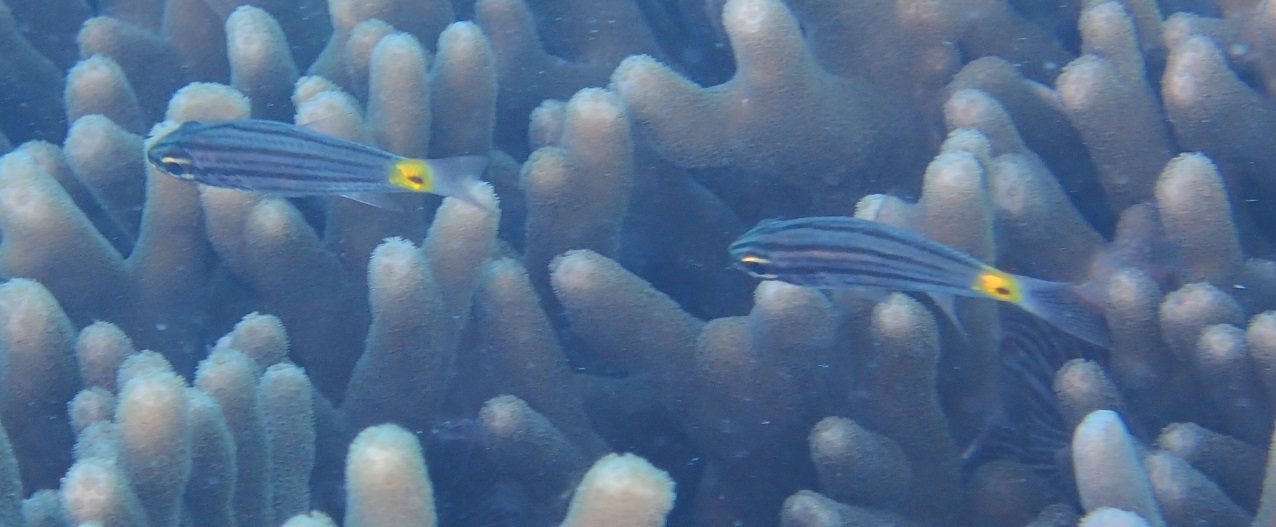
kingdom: Animalia
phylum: Chordata
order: Perciformes
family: Apogonidae
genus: Cheilodipterus
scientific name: Cheilodipterus artus
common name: Wolf cardinal
